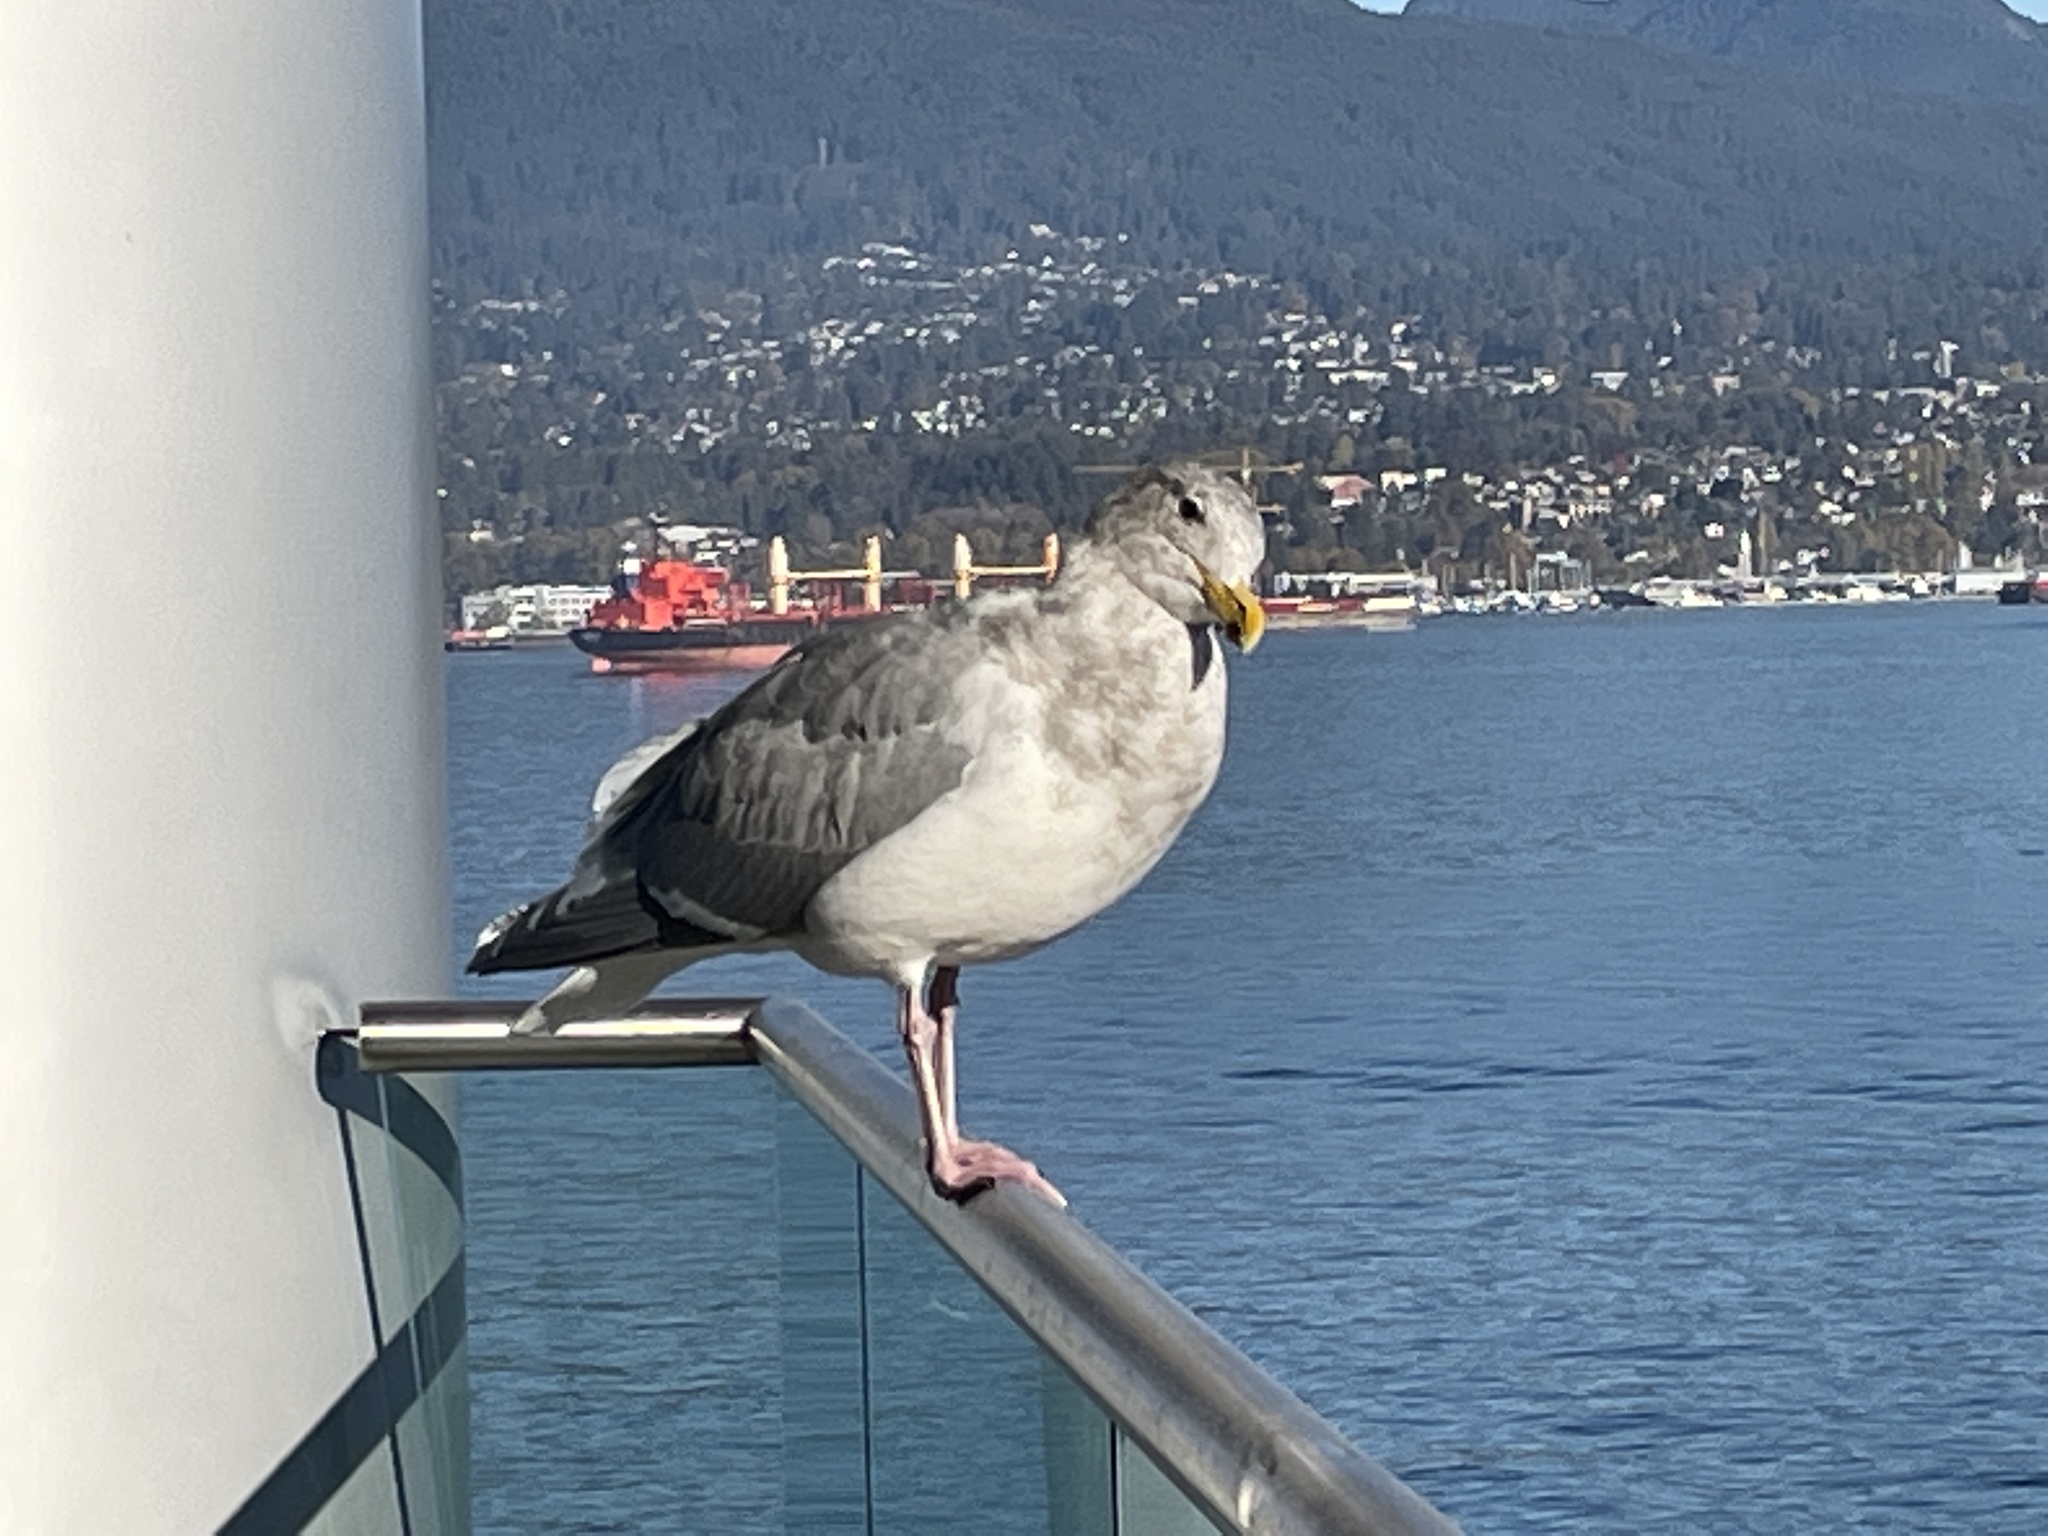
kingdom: Animalia
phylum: Chordata
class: Aves
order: Charadriiformes
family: Laridae
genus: Larus
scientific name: Larus glaucescens
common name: Glaucous-winged gull
